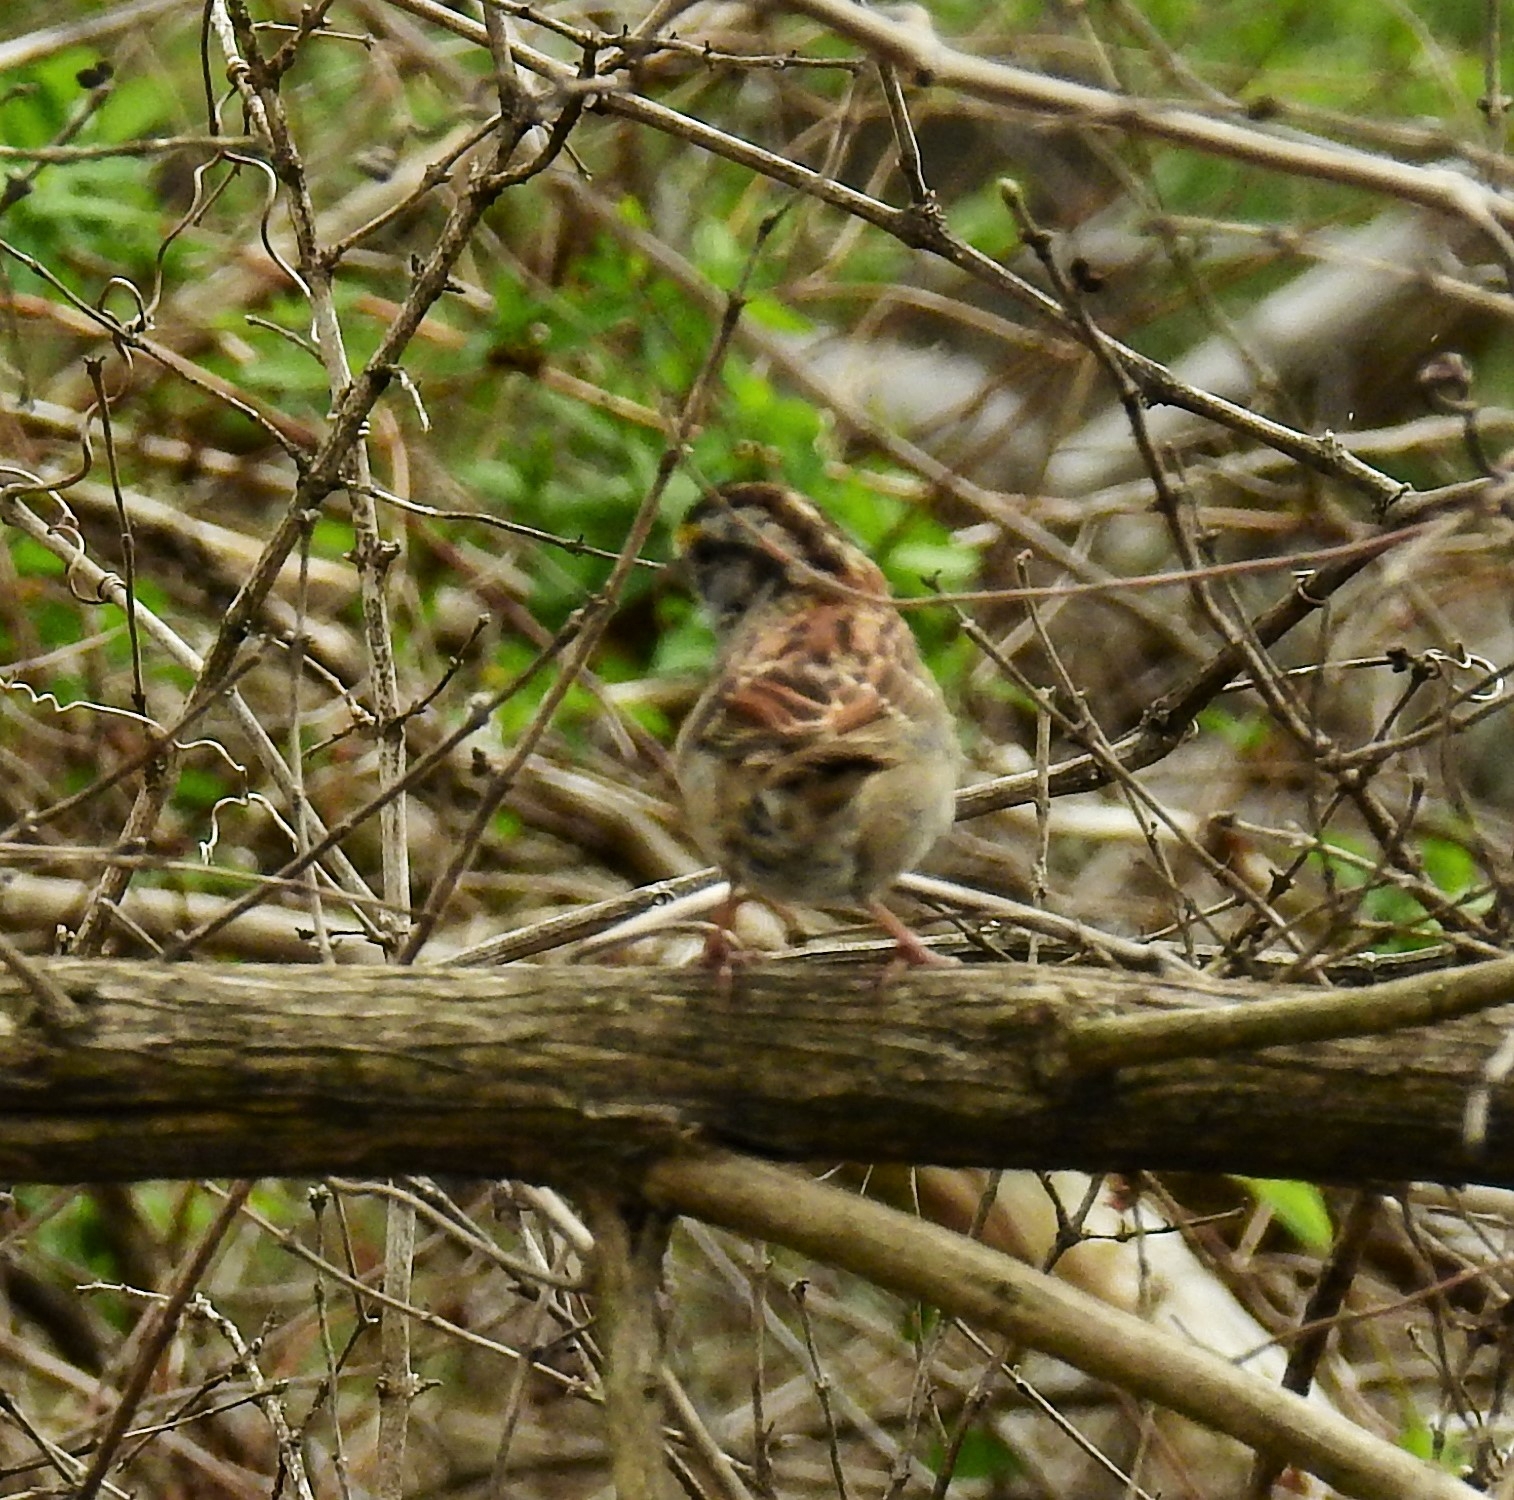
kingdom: Animalia
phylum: Chordata
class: Aves
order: Passeriformes
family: Passerellidae
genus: Zonotrichia
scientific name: Zonotrichia albicollis
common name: White-throated sparrow
